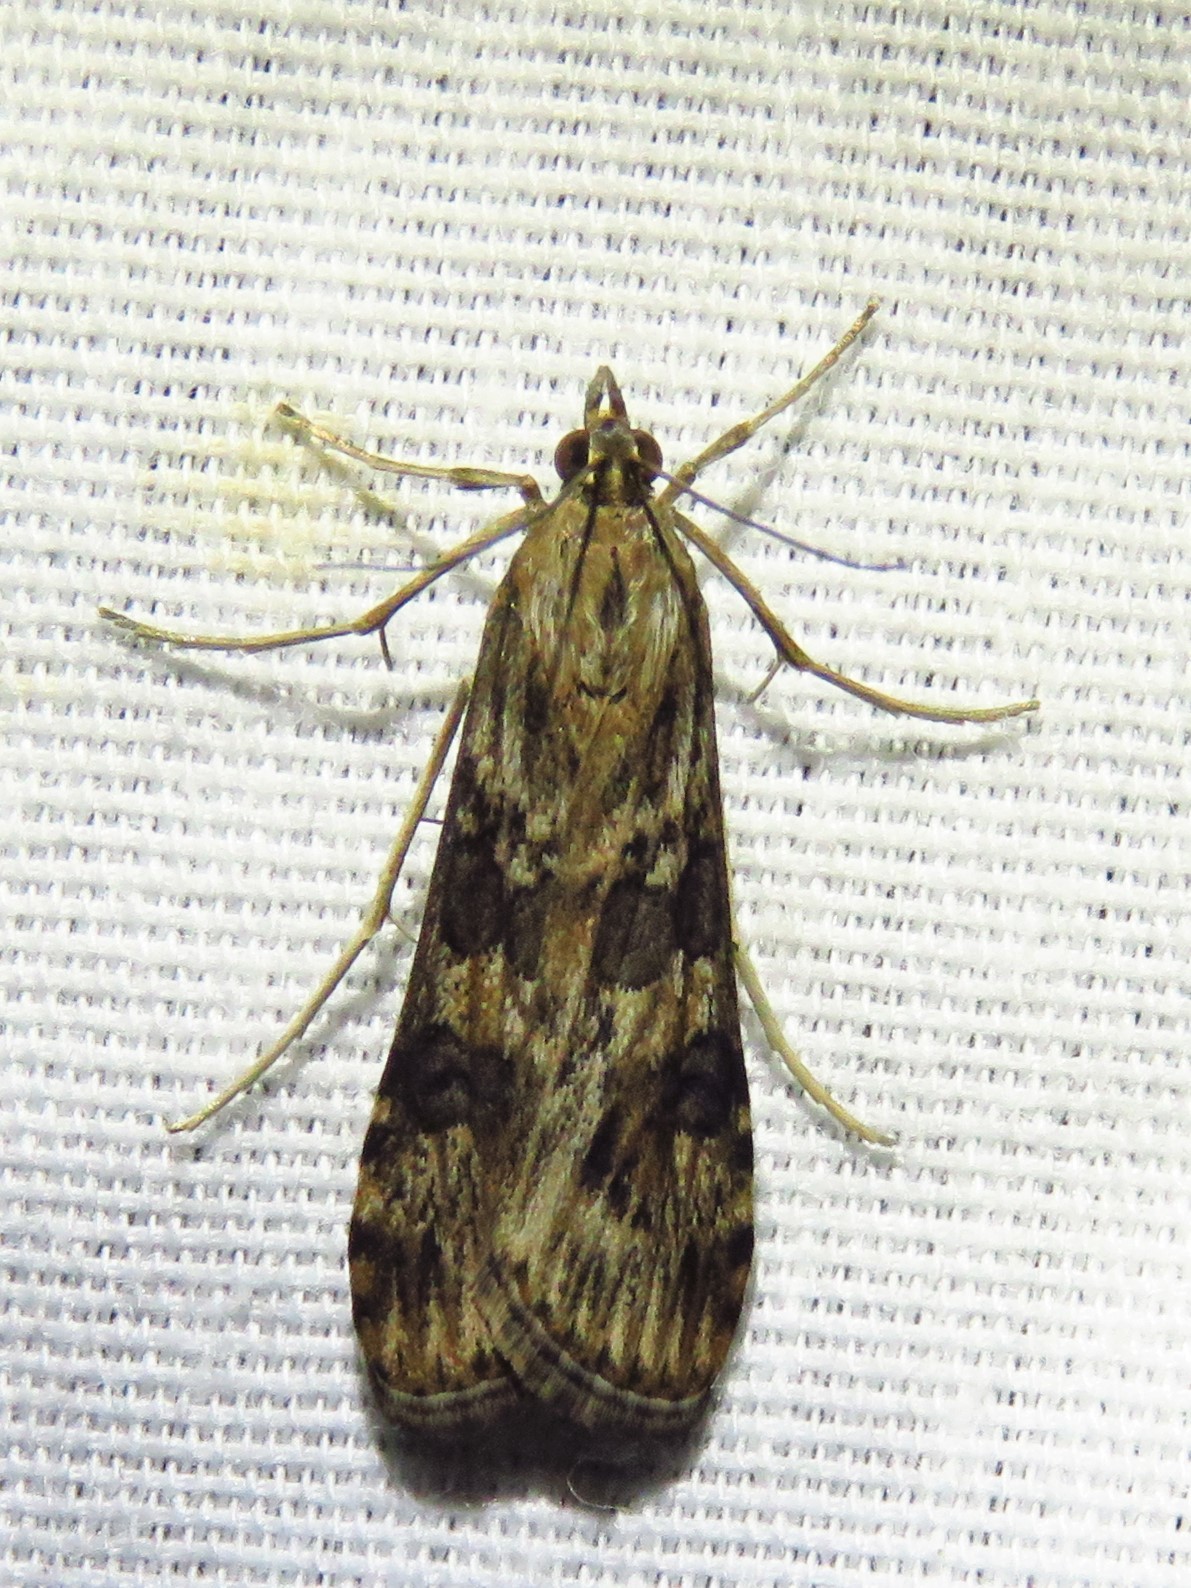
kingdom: Animalia
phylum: Arthropoda
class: Insecta
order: Lepidoptera
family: Crambidae
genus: Nomophila
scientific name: Nomophila nearctica
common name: American rush veneer
